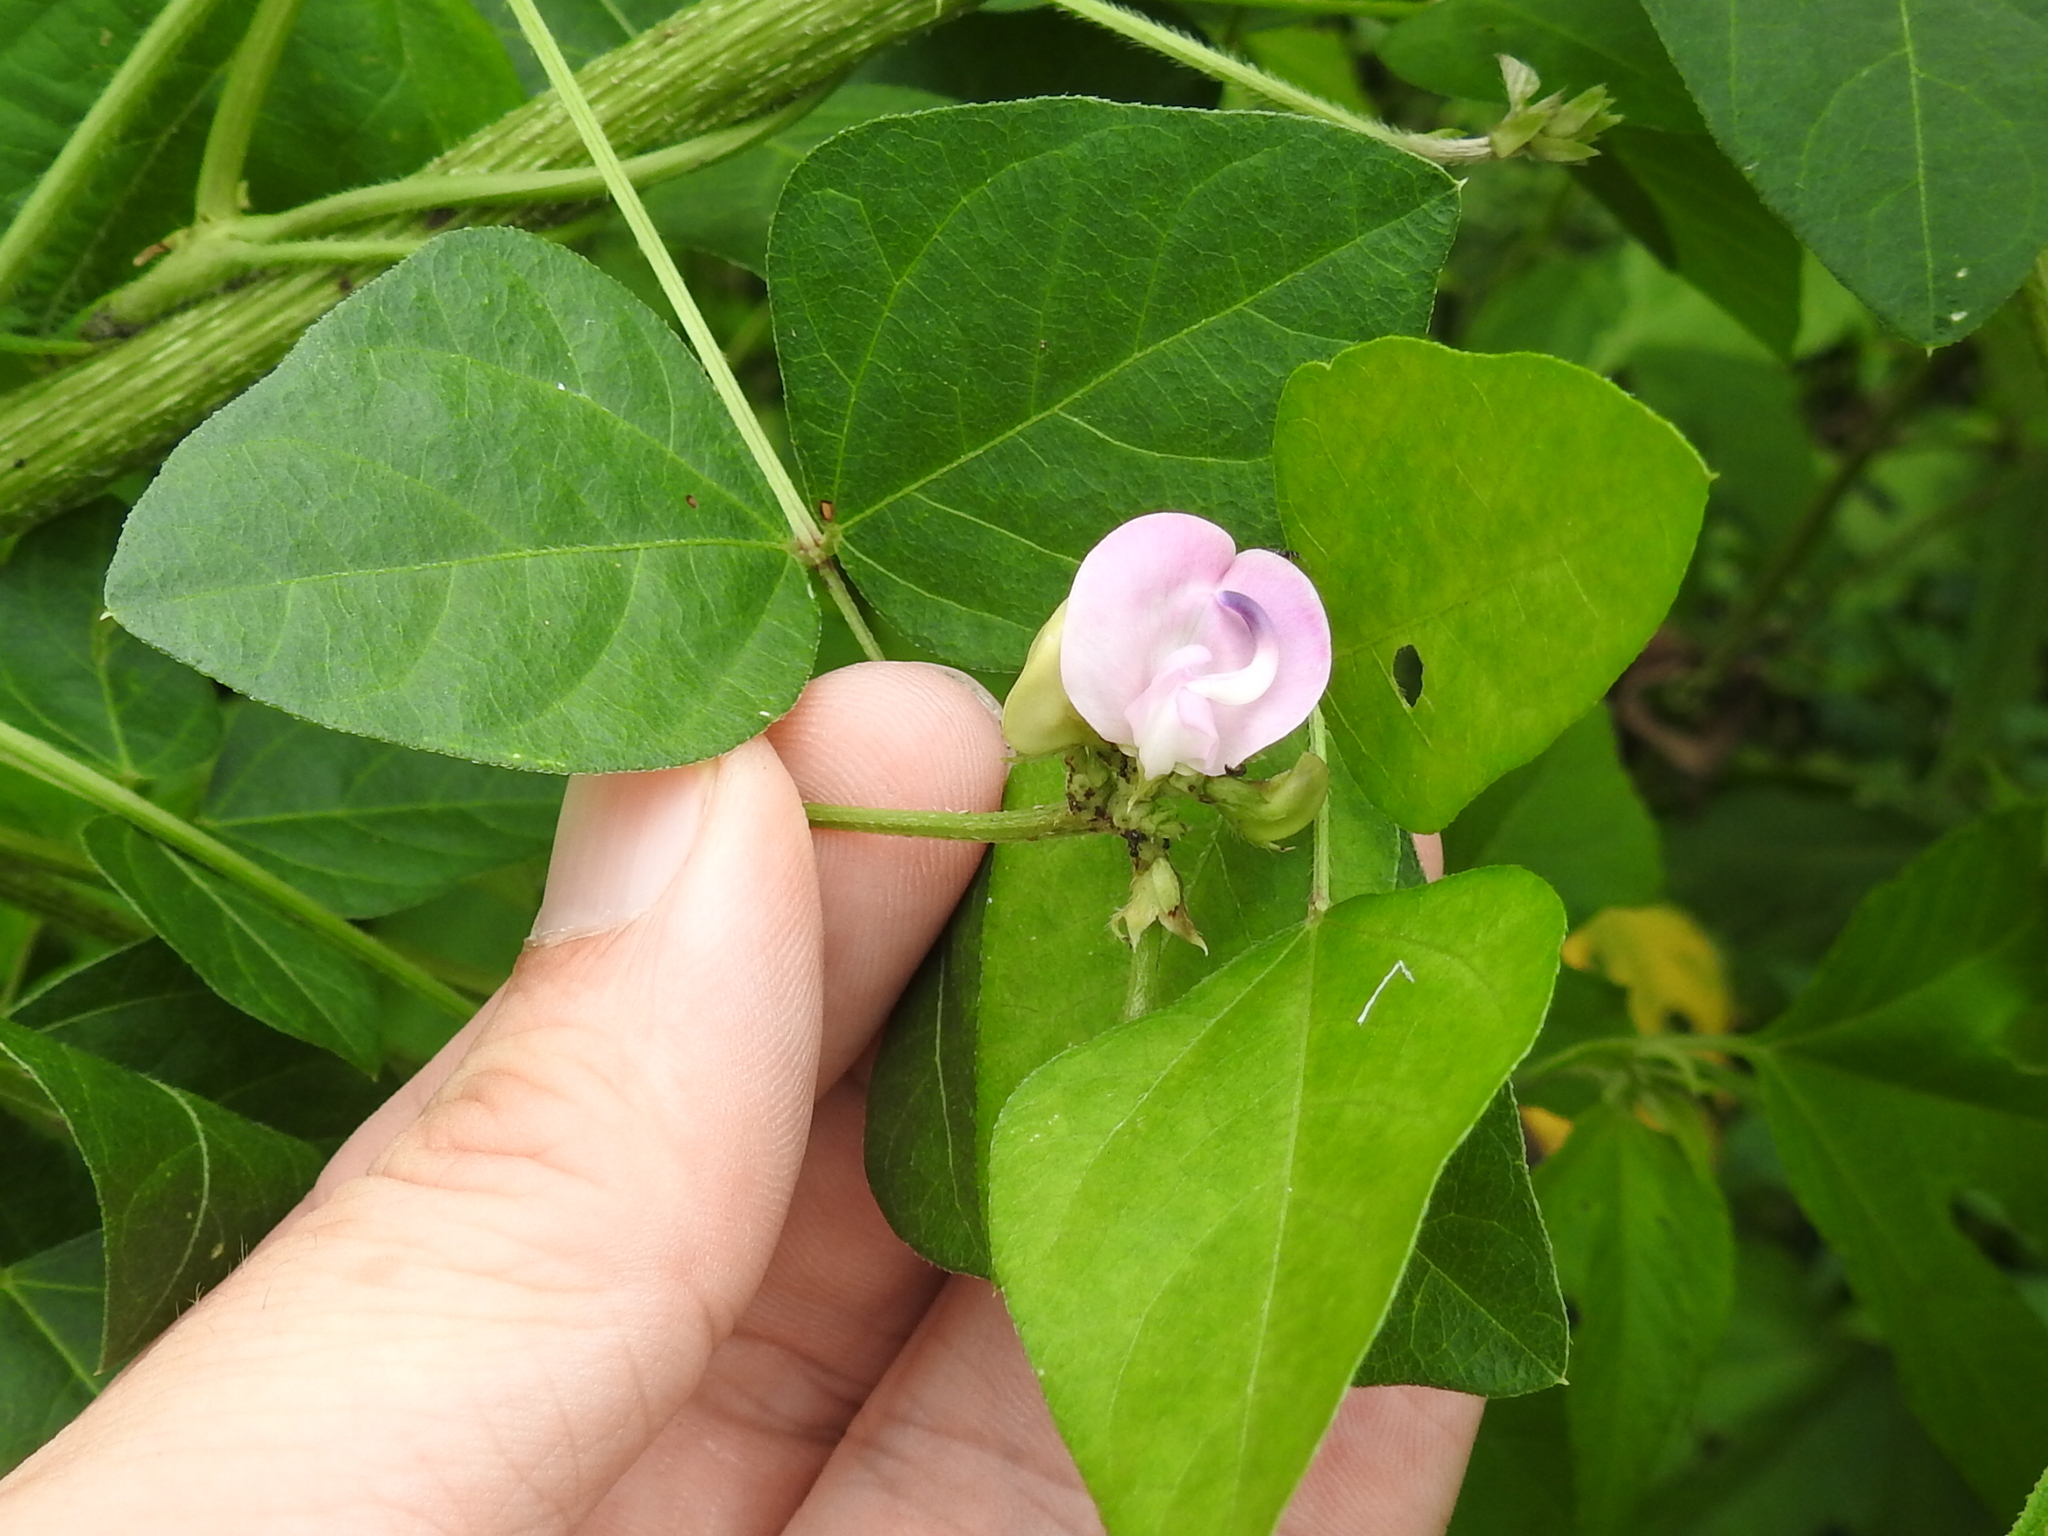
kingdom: Plantae
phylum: Tracheophyta
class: Magnoliopsida
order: Fabales
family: Fabaceae
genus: Strophostyles
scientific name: Strophostyles helvola
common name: Trailing wild bean
